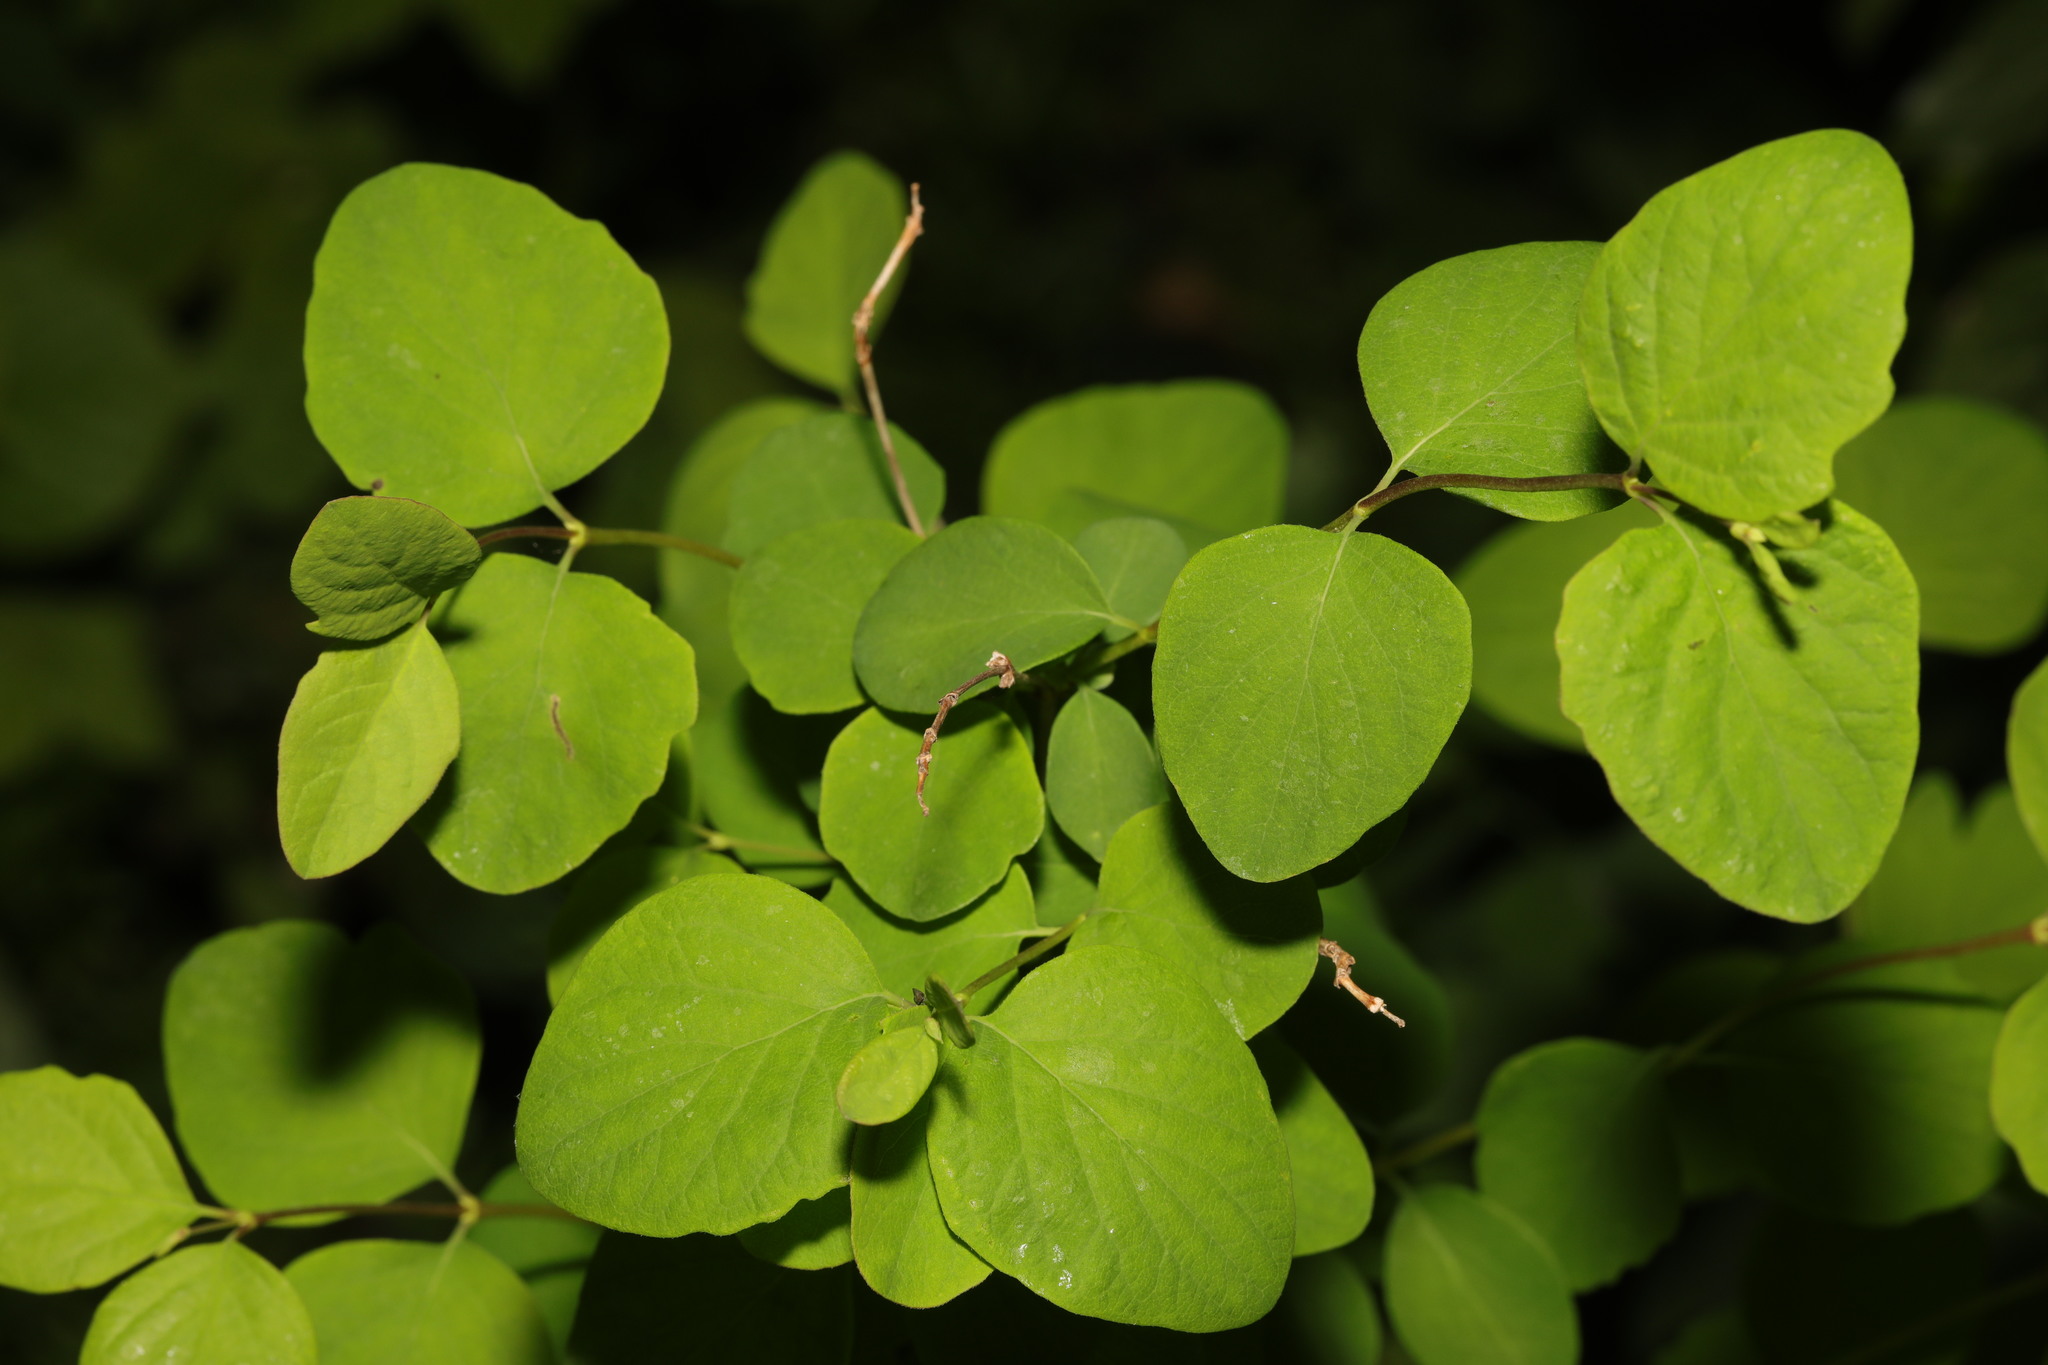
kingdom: Plantae
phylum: Tracheophyta
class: Magnoliopsida
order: Dipsacales
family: Caprifoliaceae
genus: Symphoricarpos
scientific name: Symphoricarpos albus
